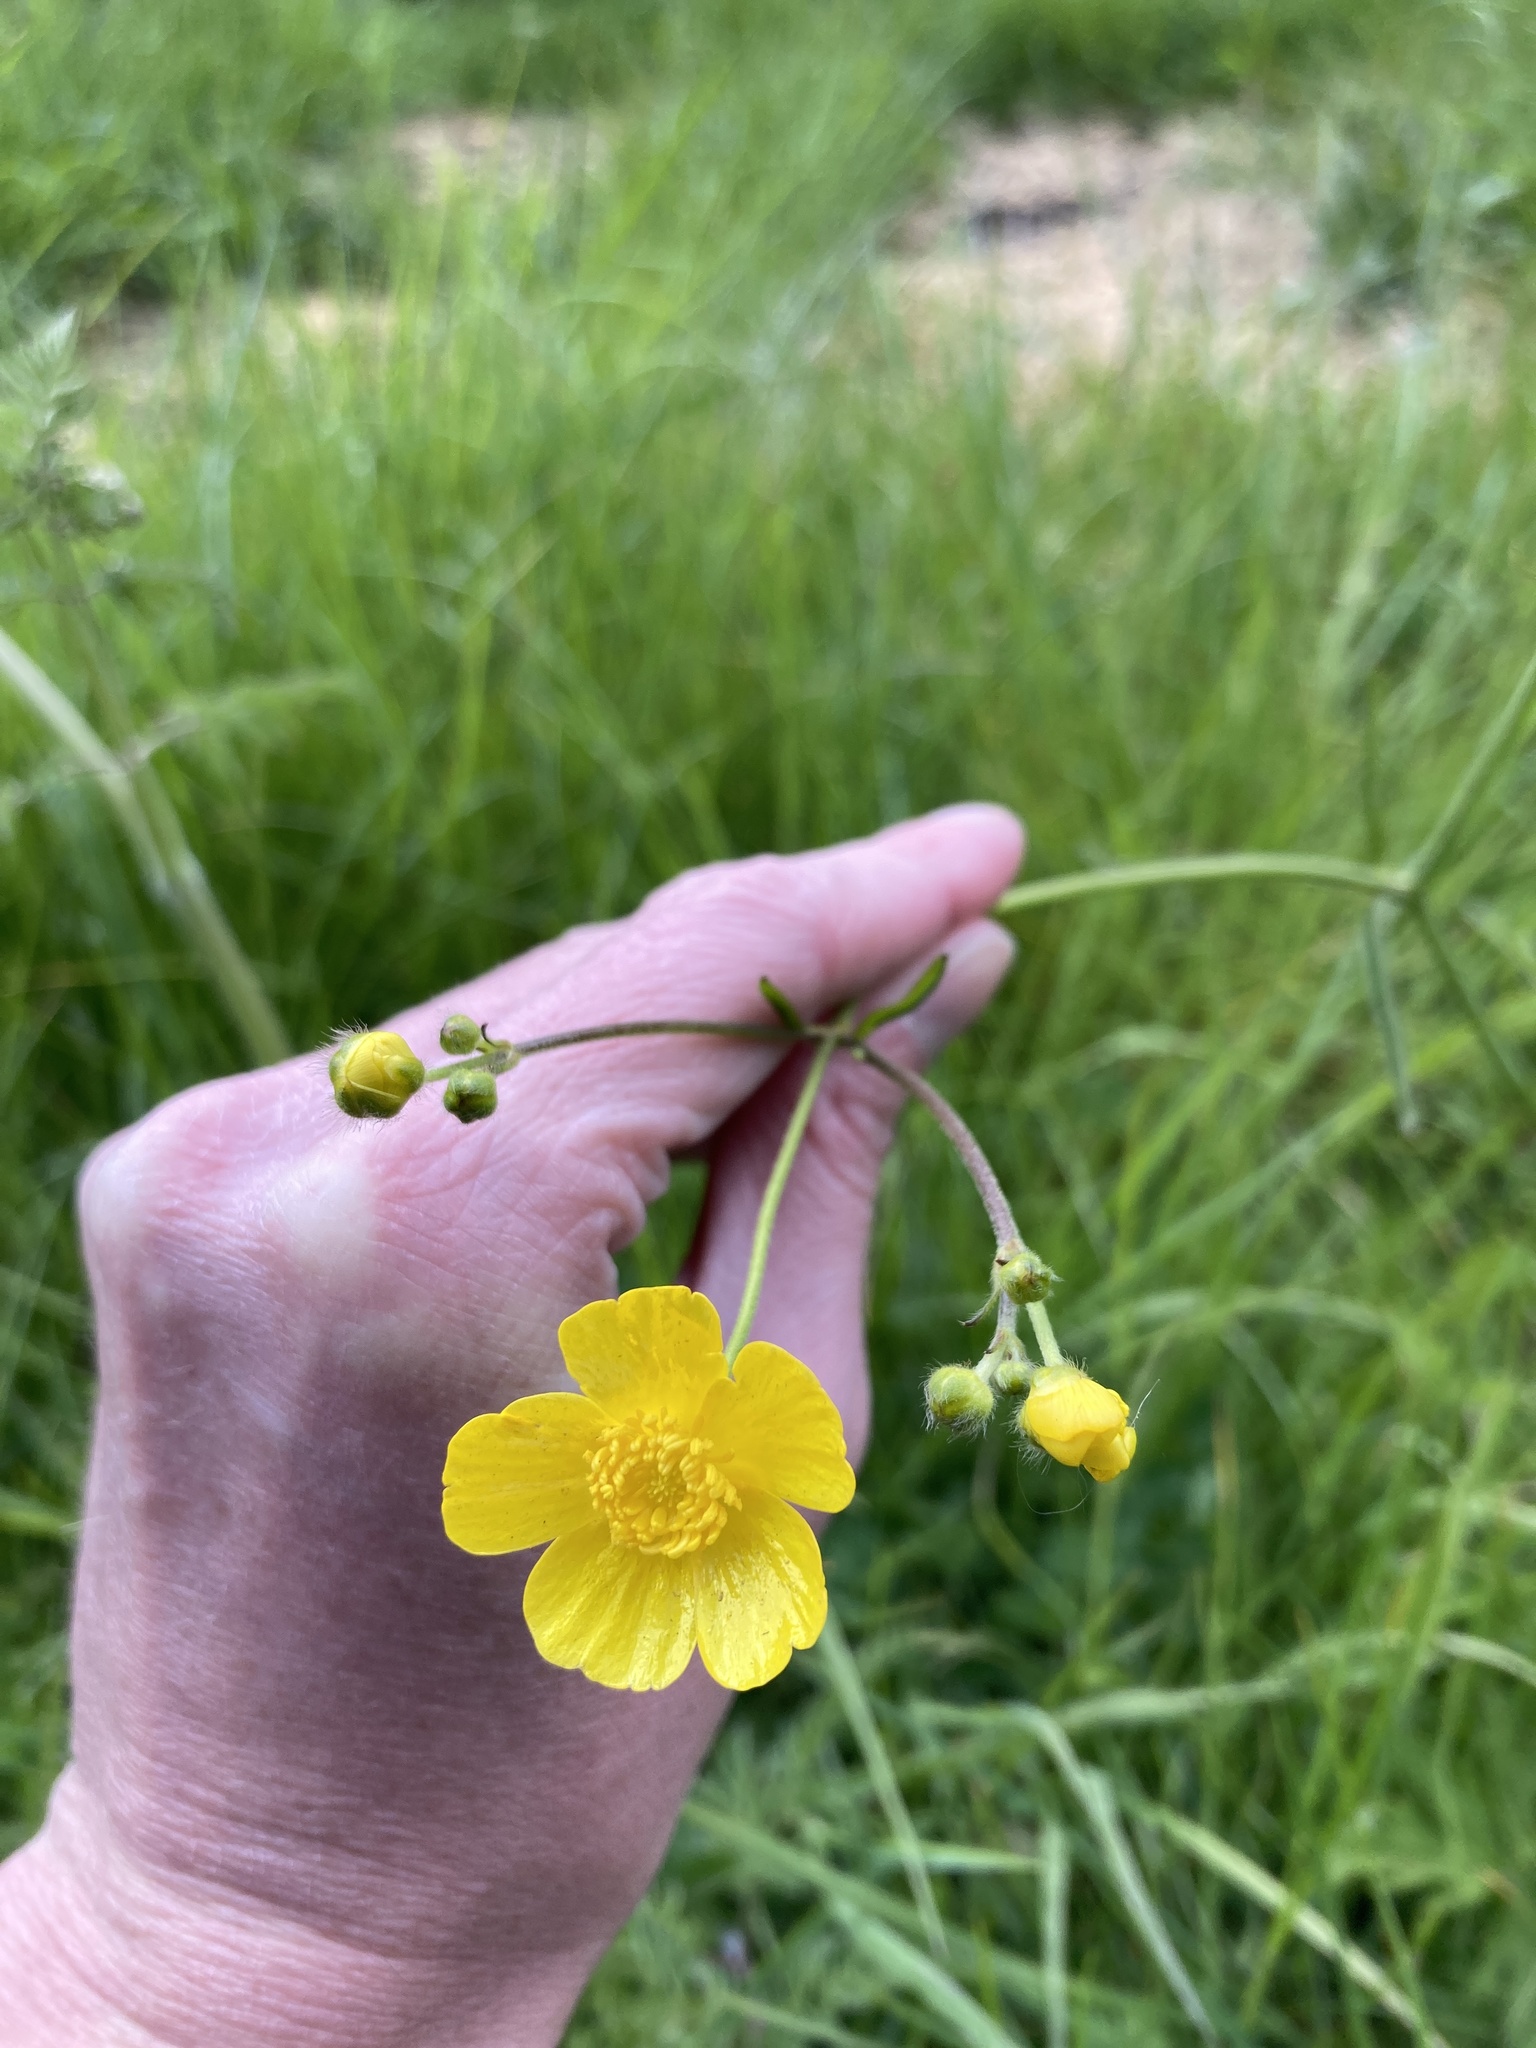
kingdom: Plantae
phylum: Tracheophyta
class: Magnoliopsida
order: Ranunculales
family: Ranunculaceae
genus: Ranunculus
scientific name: Ranunculus acris
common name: Meadow buttercup
